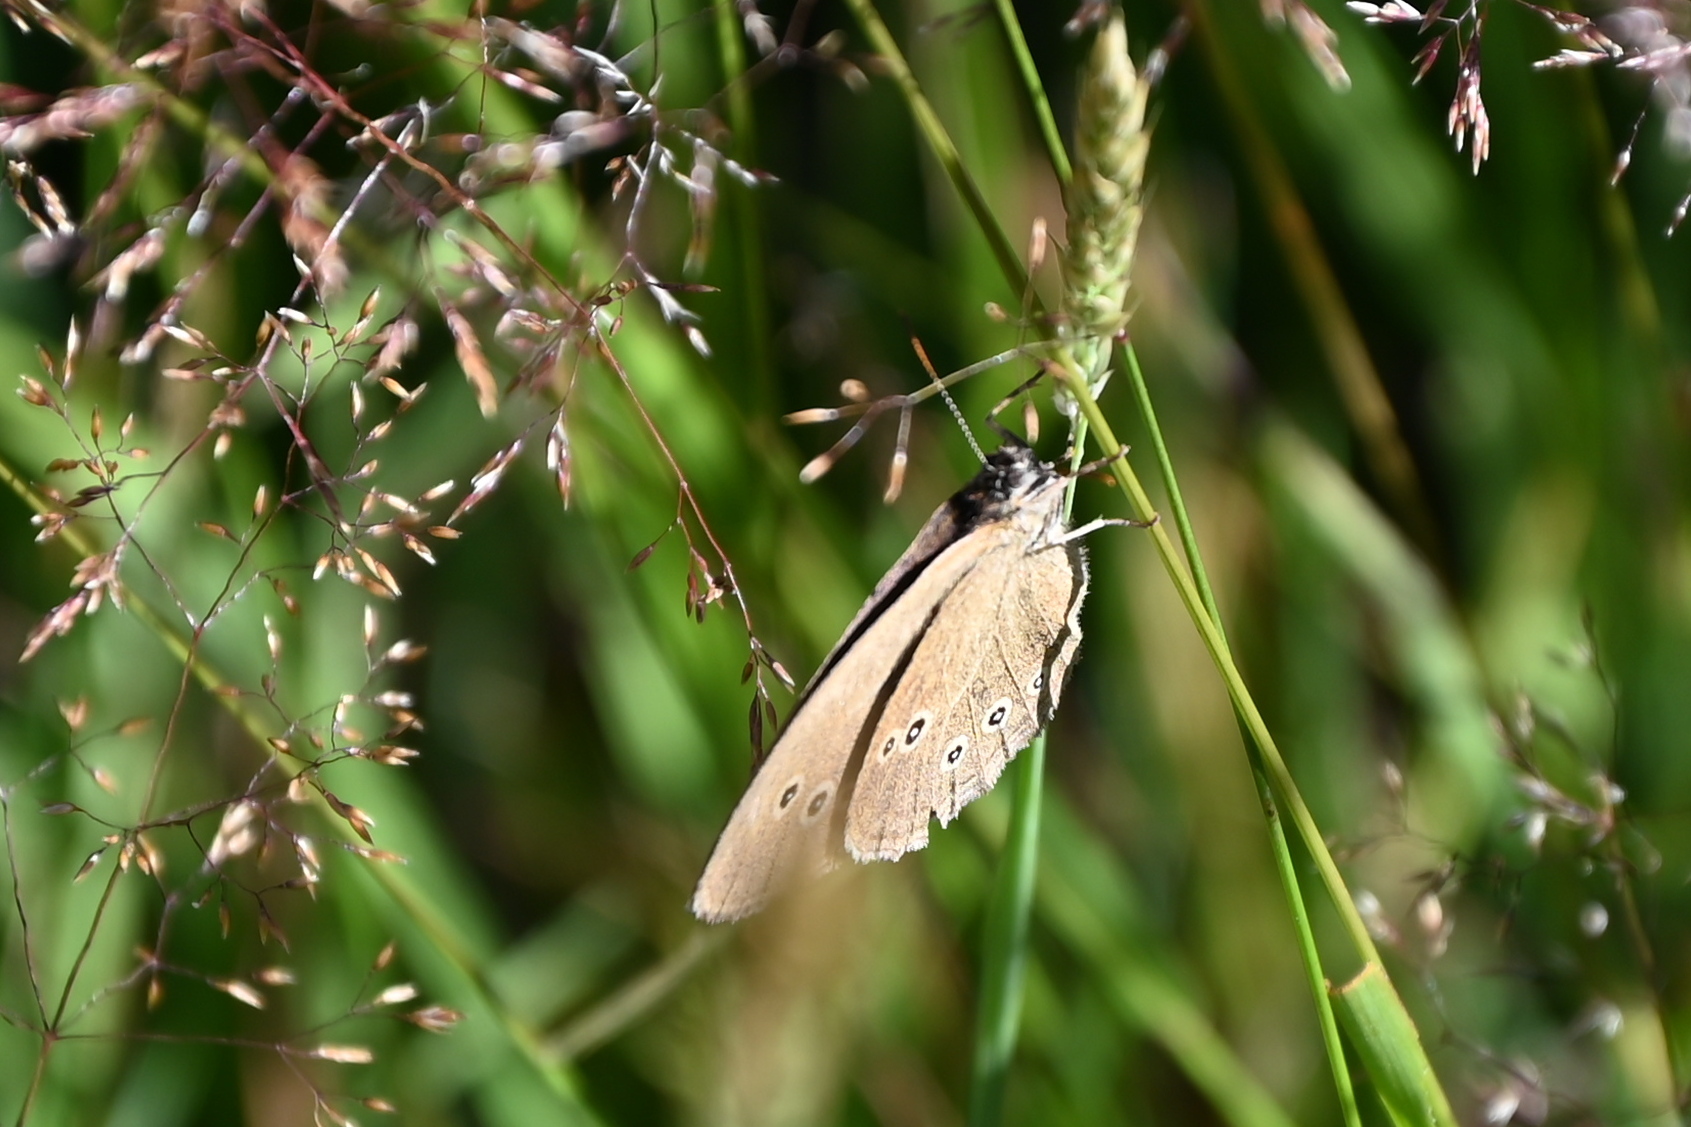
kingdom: Animalia
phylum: Arthropoda
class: Insecta
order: Lepidoptera
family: Nymphalidae
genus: Aphantopus
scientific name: Aphantopus hyperantus
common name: Ringlet
